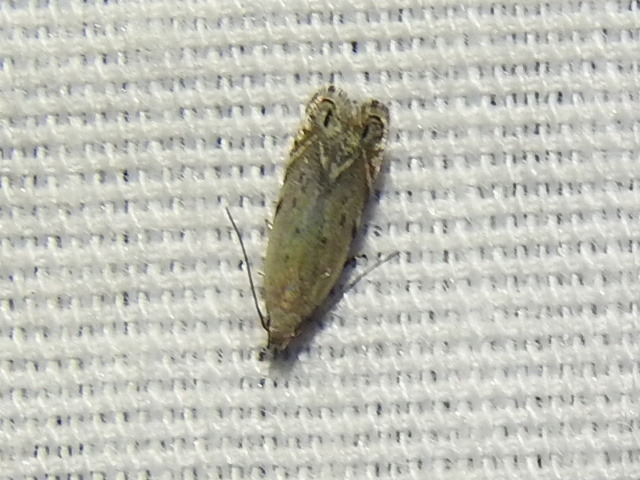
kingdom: Animalia
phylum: Arthropoda
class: Insecta
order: Lepidoptera
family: Gelechiidae
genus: Battaristis
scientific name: Battaristis nigratomella
